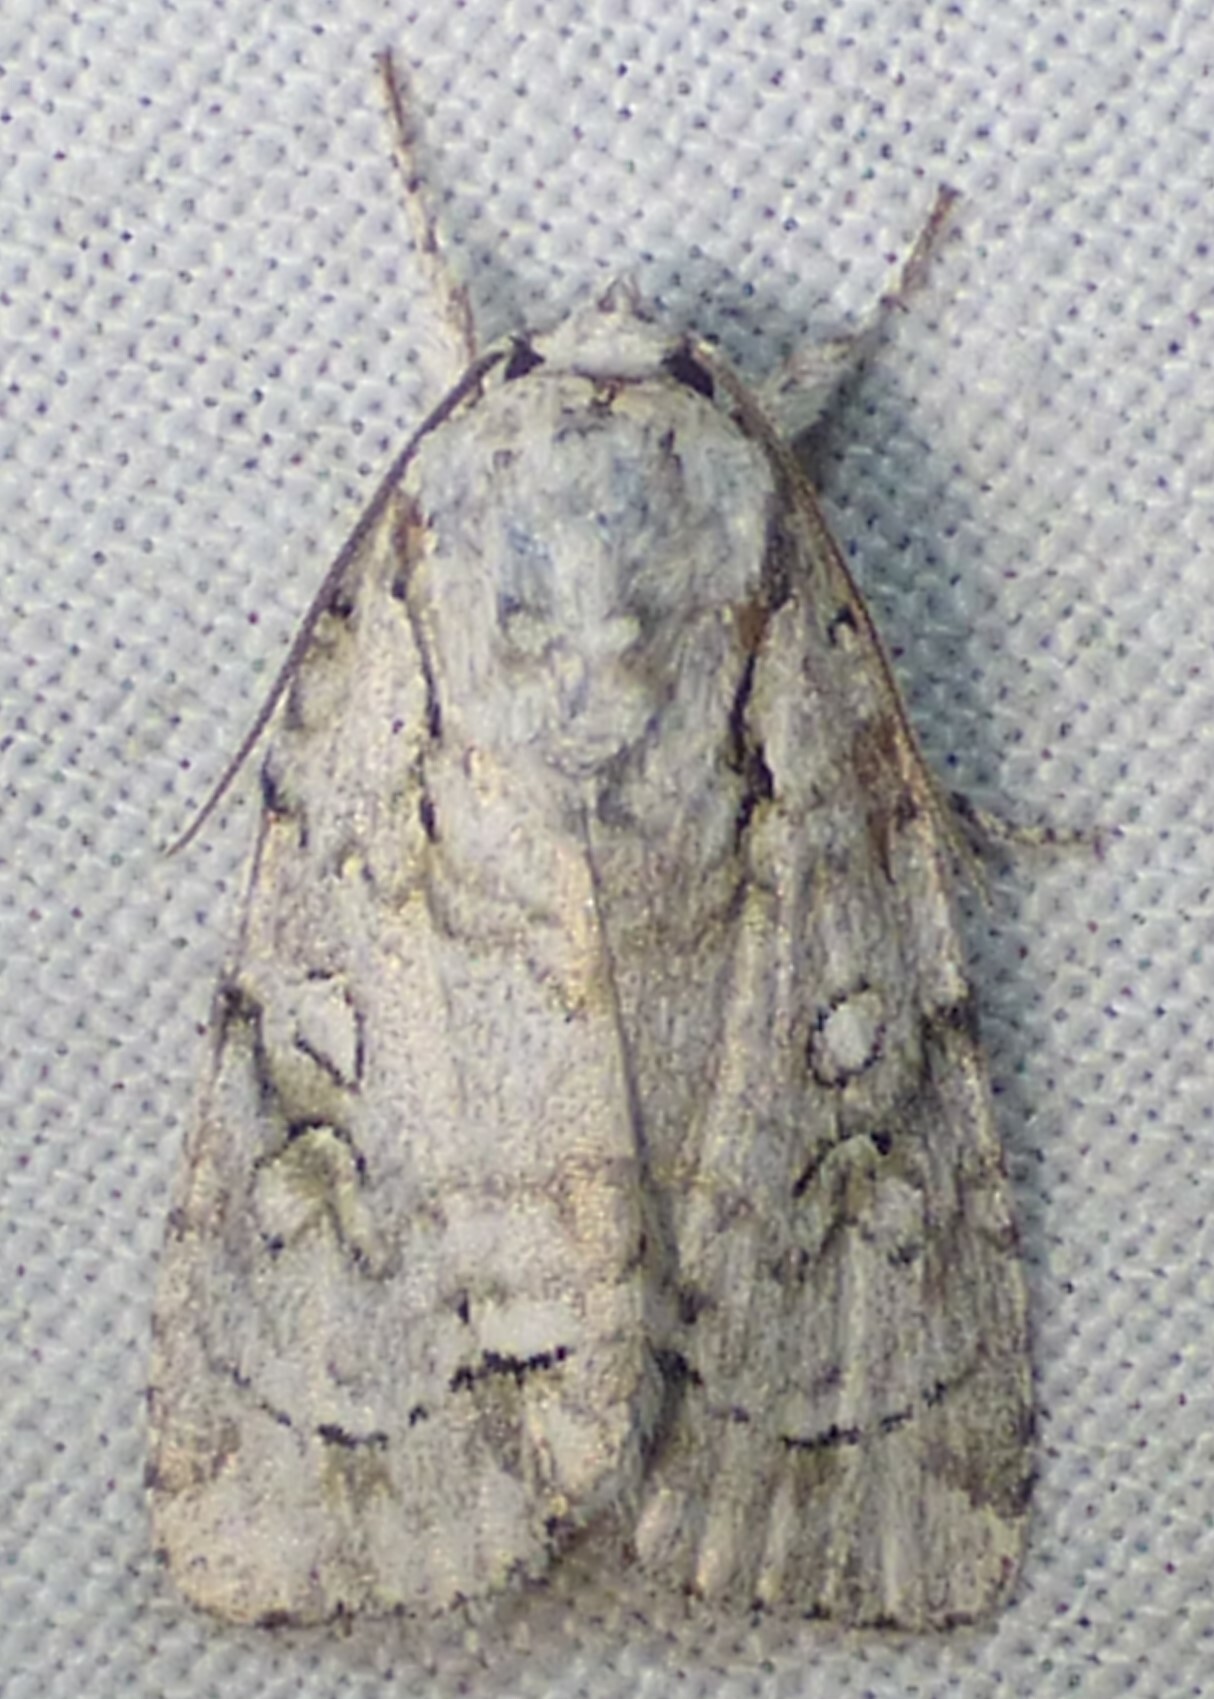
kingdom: Animalia
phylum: Arthropoda
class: Insecta
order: Lepidoptera
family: Noctuidae
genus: Acronicta
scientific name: Acronicta vinnula
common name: Delightful dagger
